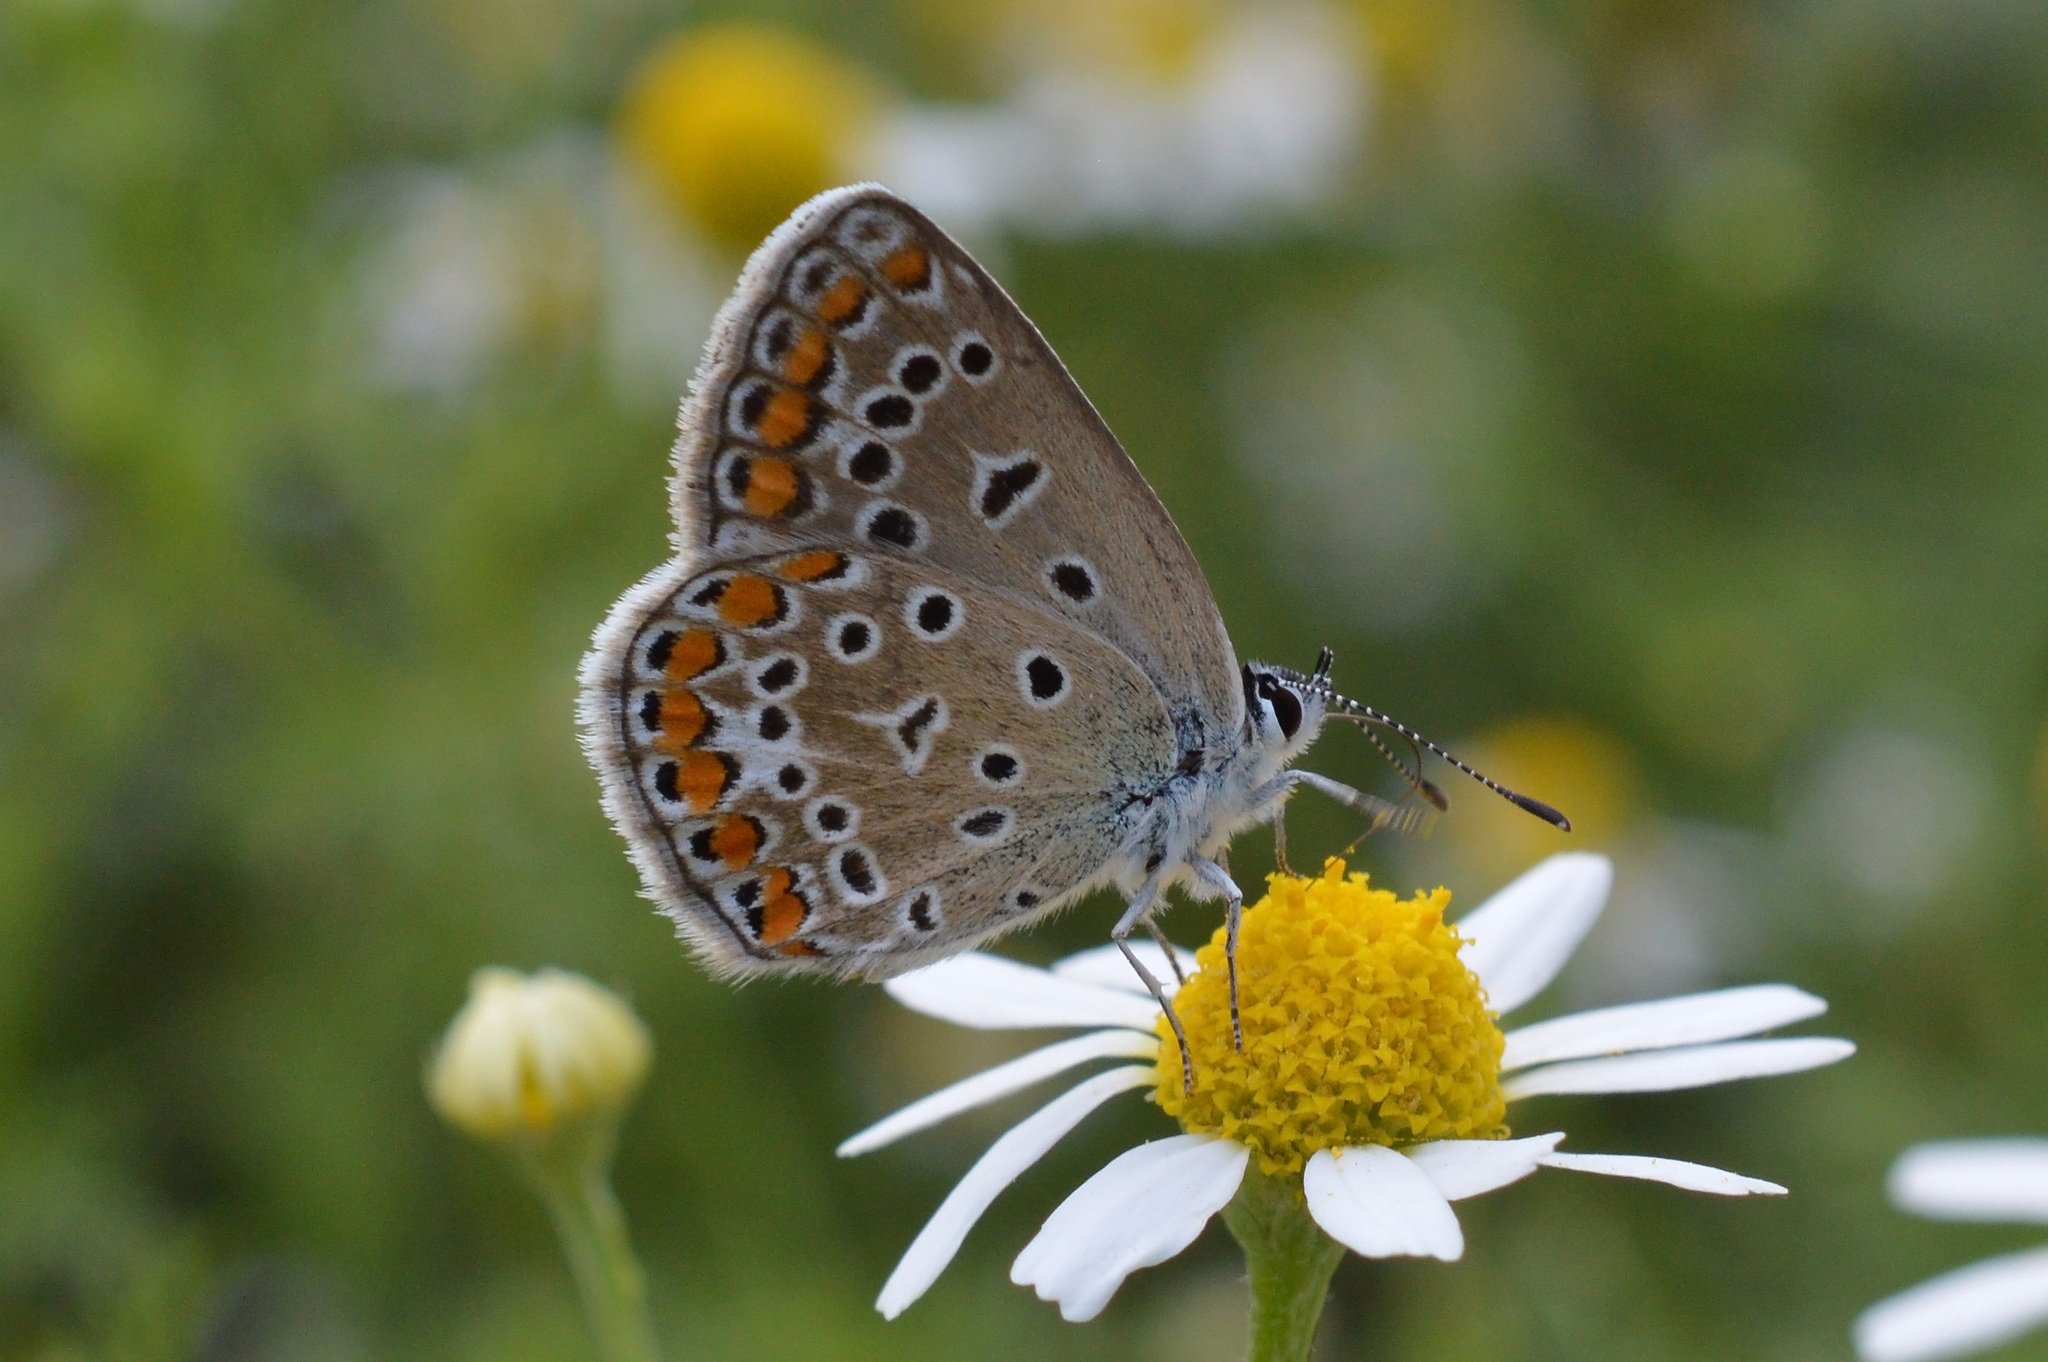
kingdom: Animalia
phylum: Arthropoda
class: Insecta
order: Lepidoptera
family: Lycaenidae
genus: Polyommatus
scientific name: Polyommatus icarus
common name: Common blue
